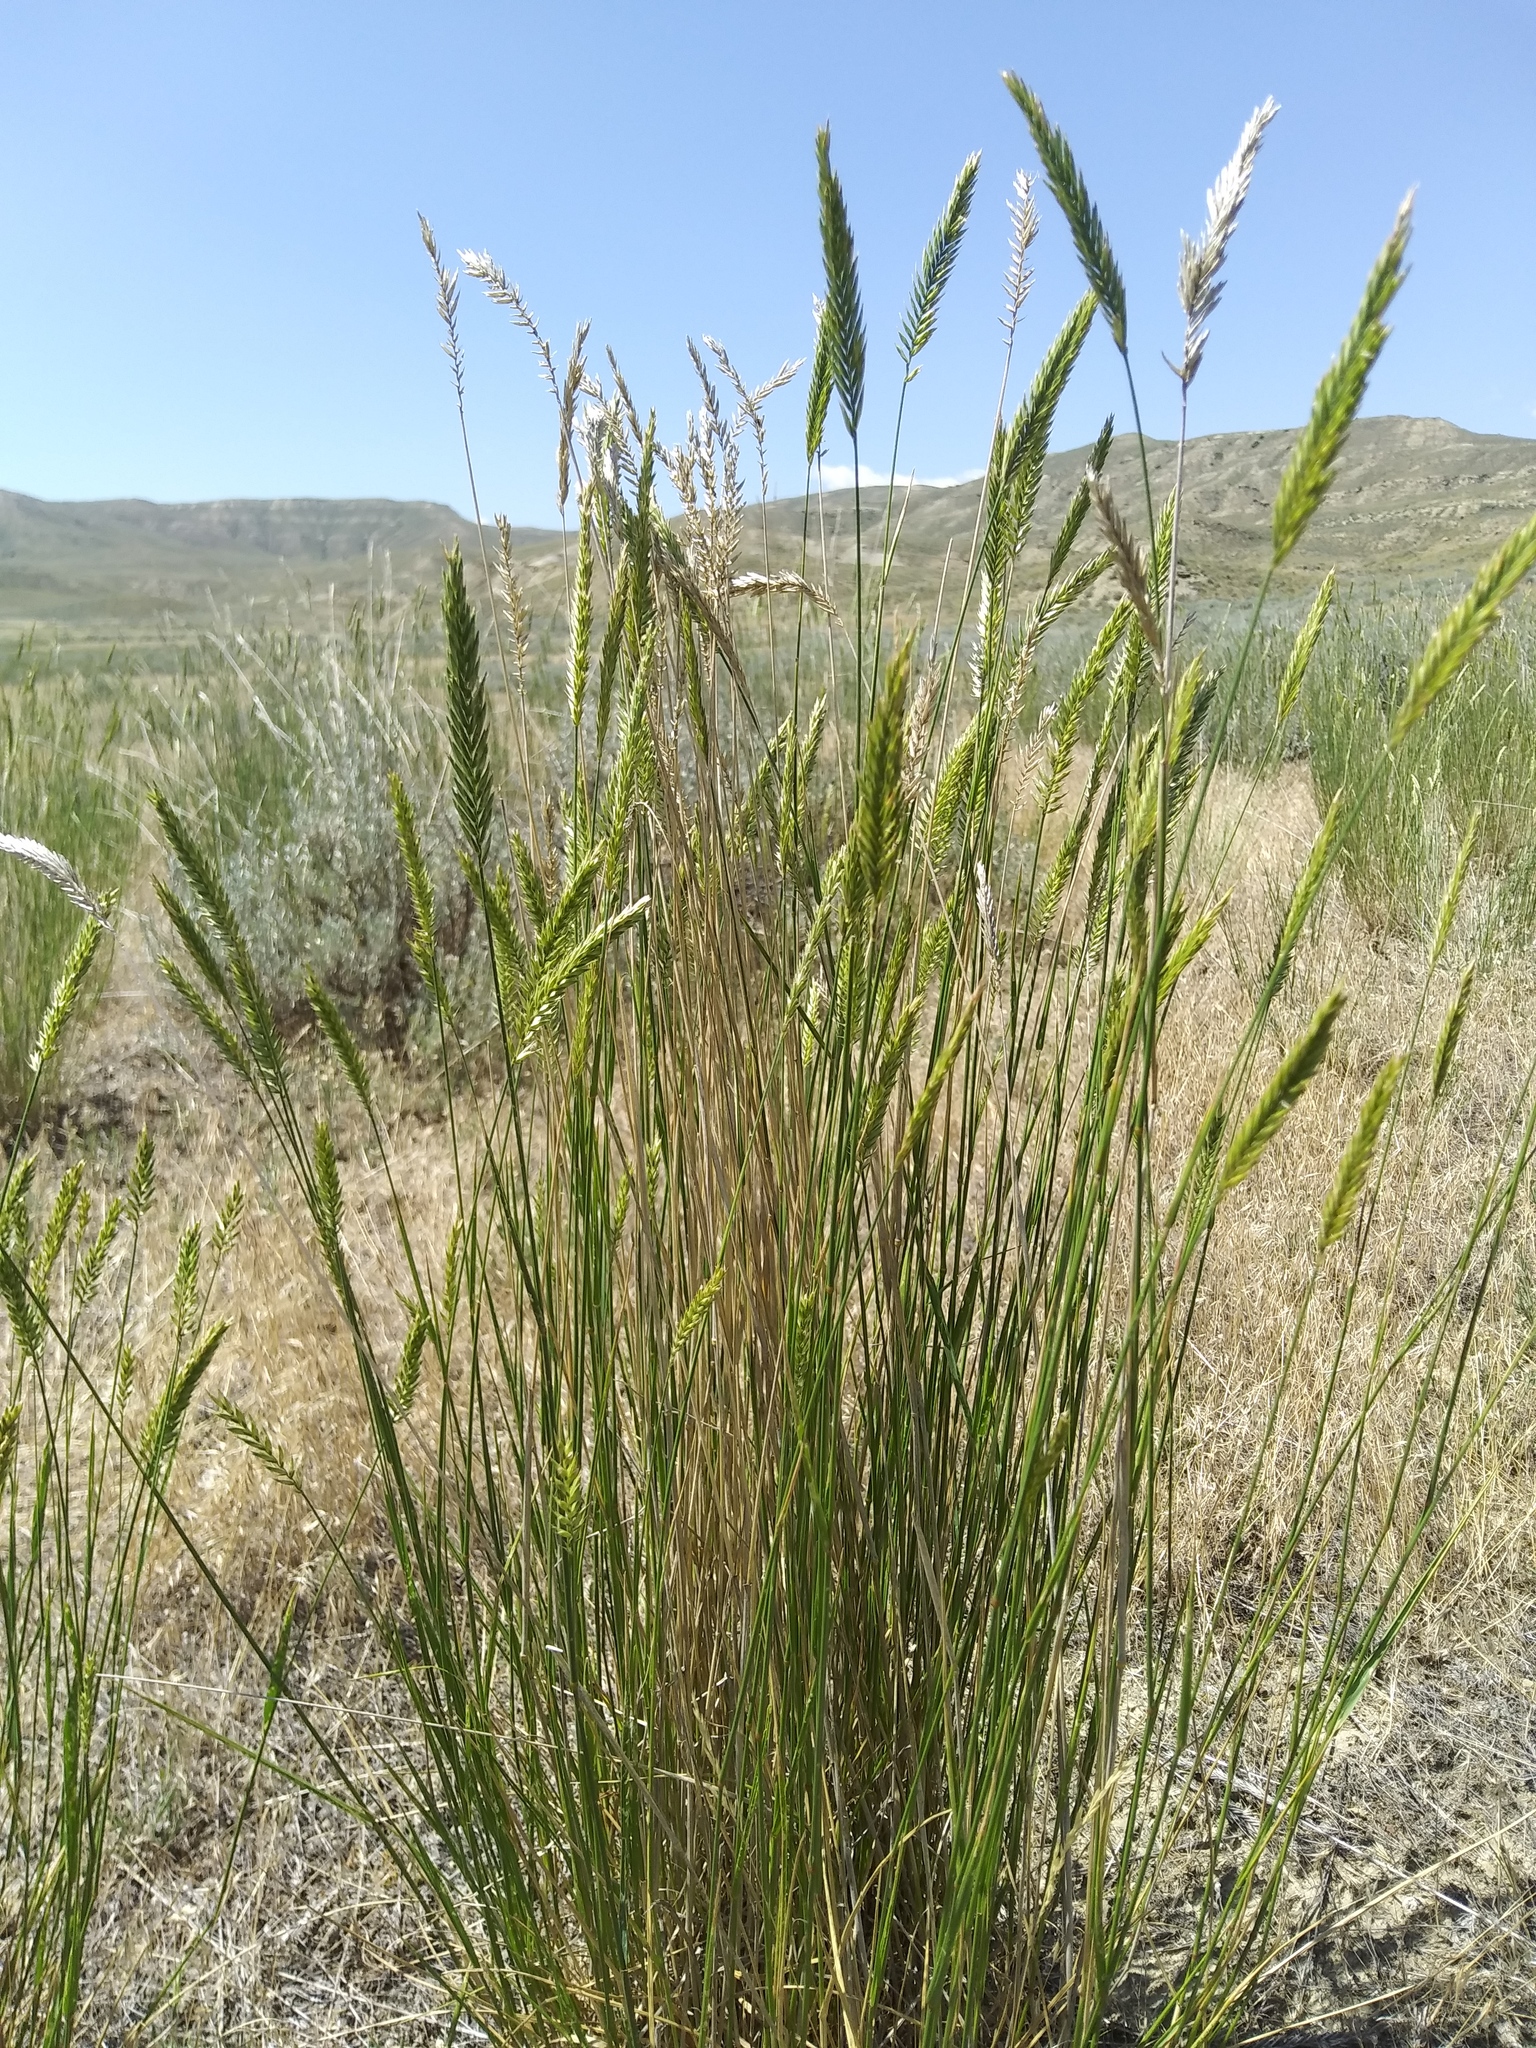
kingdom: Plantae
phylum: Tracheophyta
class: Liliopsida
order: Poales
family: Poaceae
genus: Agropyron
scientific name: Agropyron cristatum
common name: Crested wheatgrass
